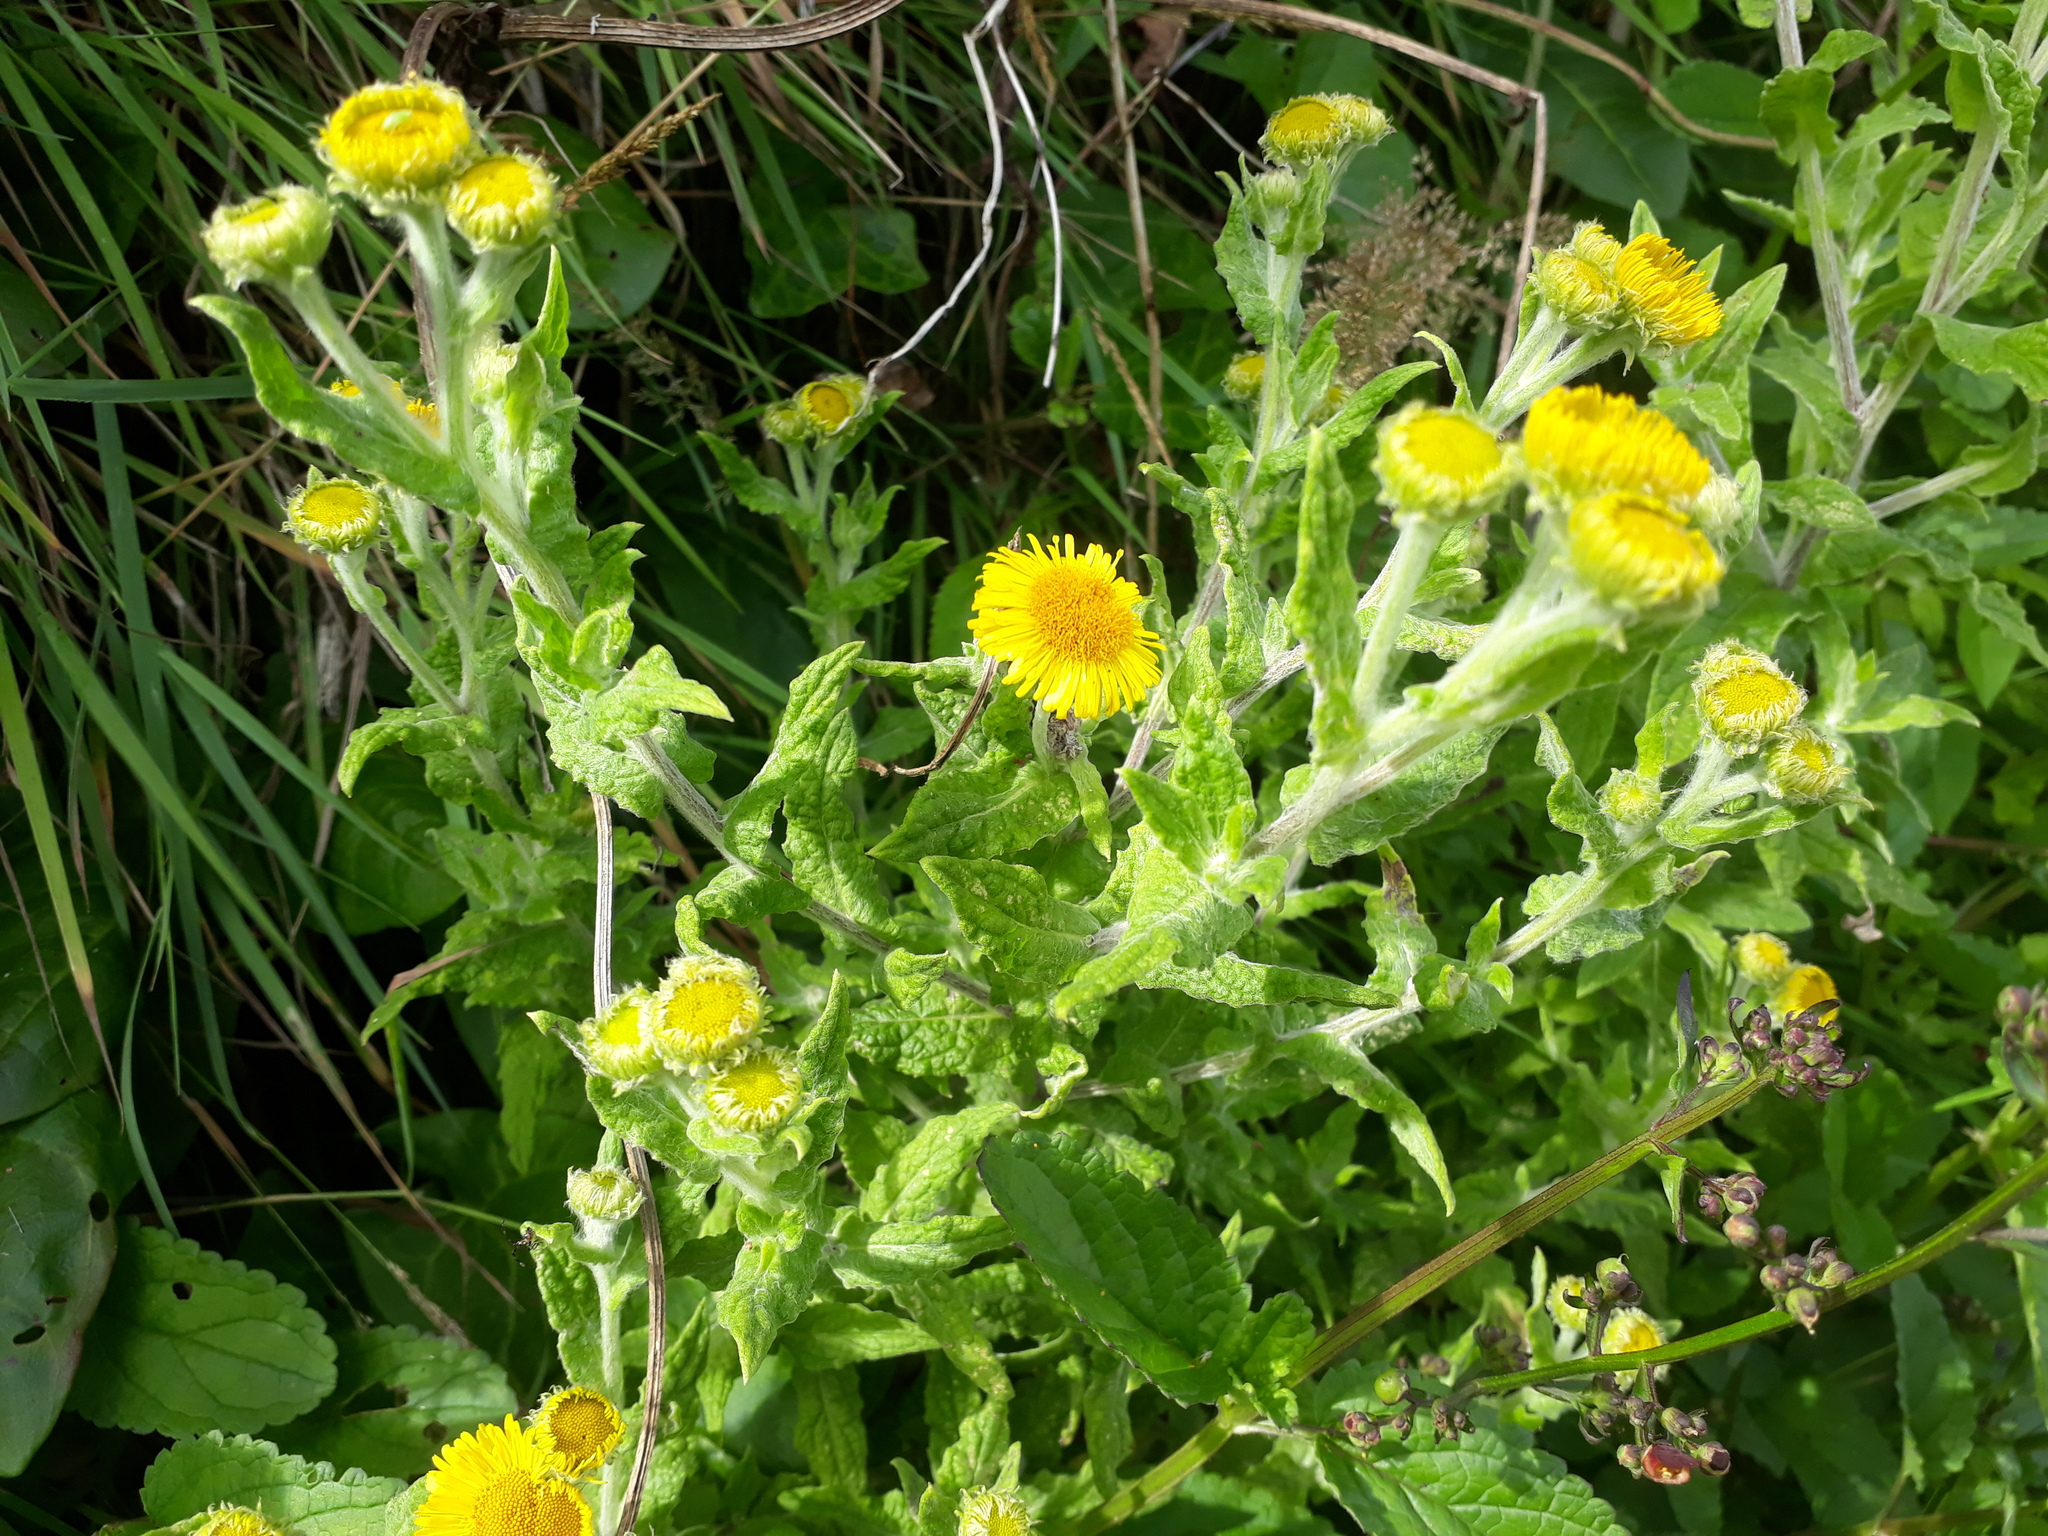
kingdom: Plantae
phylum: Tracheophyta
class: Magnoliopsida
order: Asterales
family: Asteraceae
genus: Pulicaria
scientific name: Pulicaria dysenterica
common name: Common fleabane
